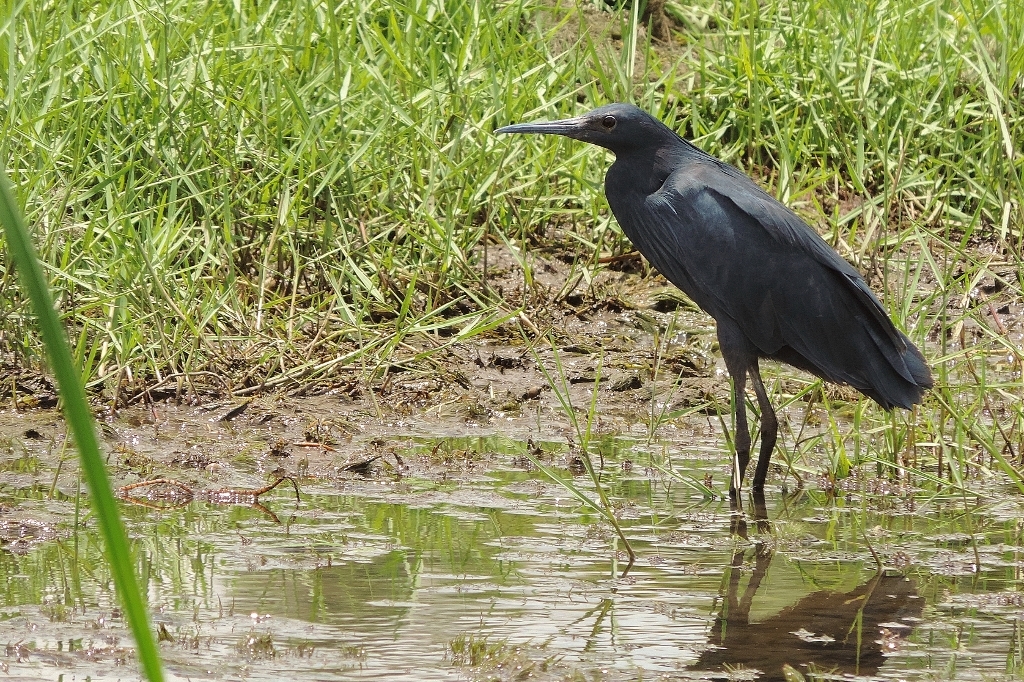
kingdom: Animalia
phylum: Chordata
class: Aves
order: Pelecaniformes
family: Ardeidae
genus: Egretta
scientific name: Egretta ardesiaca
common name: Black heron
